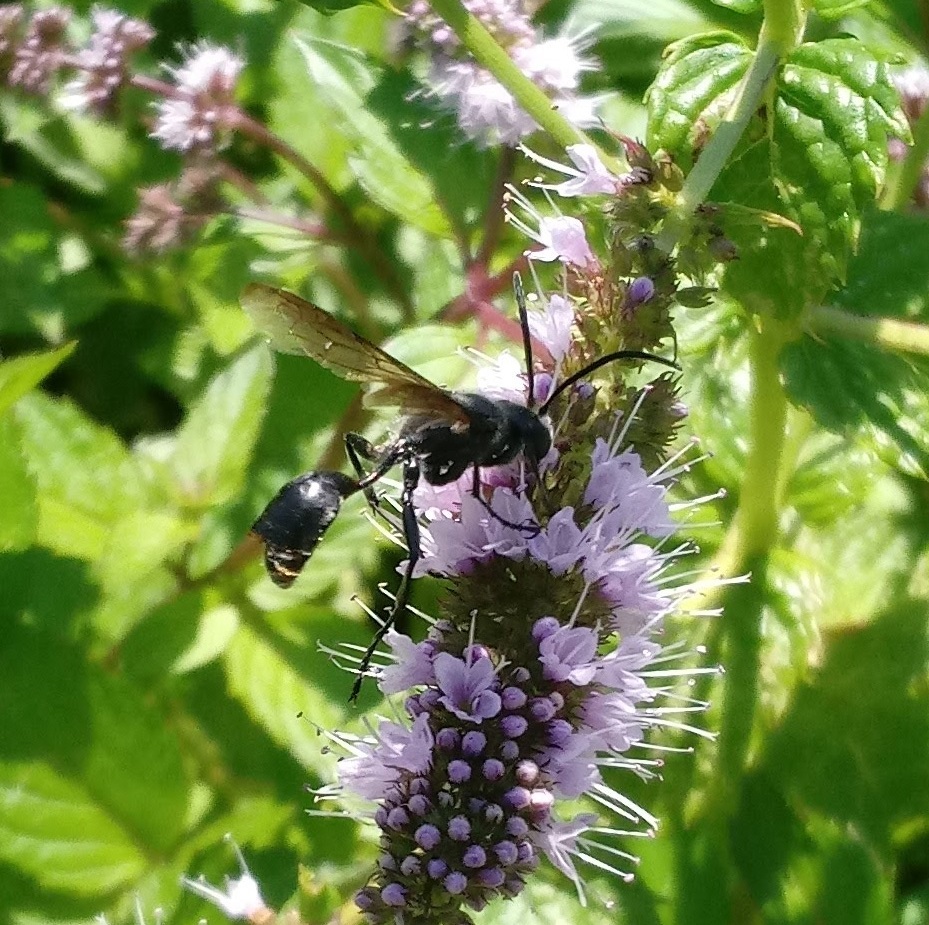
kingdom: Animalia
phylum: Arthropoda
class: Insecta
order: Strepsiptera
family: Xenidae
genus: Paraxenos
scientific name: Paraxenos auripedis
